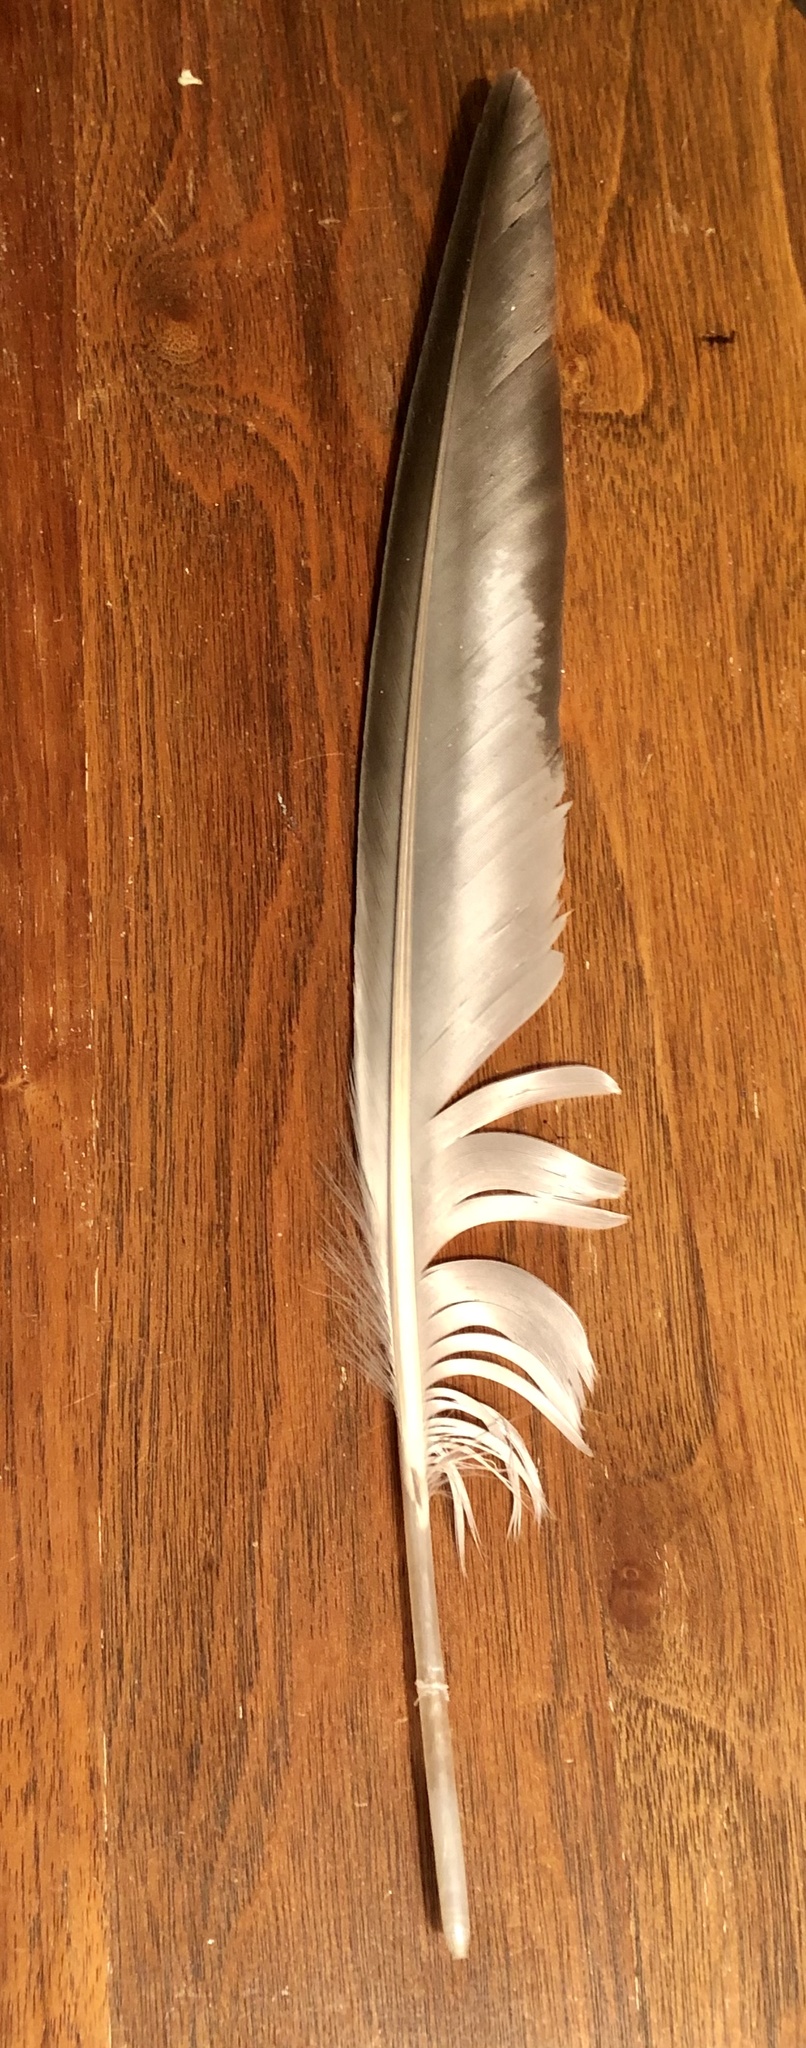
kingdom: Animalia
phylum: Chordata
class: Aves
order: Charadriiformes
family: Laridae
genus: Larus
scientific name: Larus delawarensis
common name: Ring-billed gull
